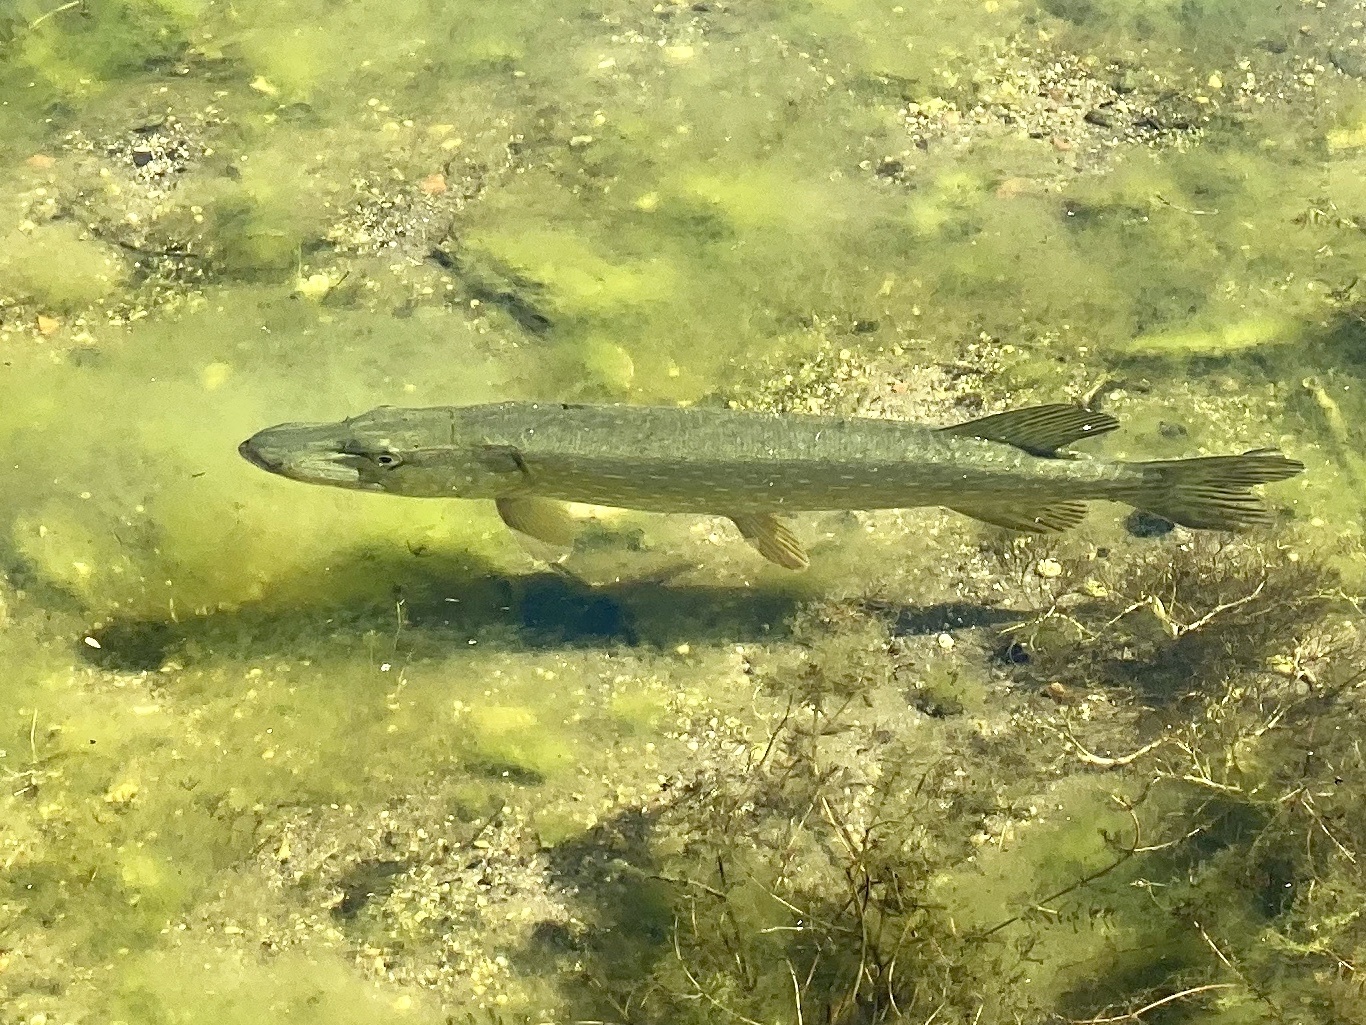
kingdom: Animalia
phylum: Chordata
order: Esociformes
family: Esocidae
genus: Esox
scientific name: Esox lucius
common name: Northern pike
